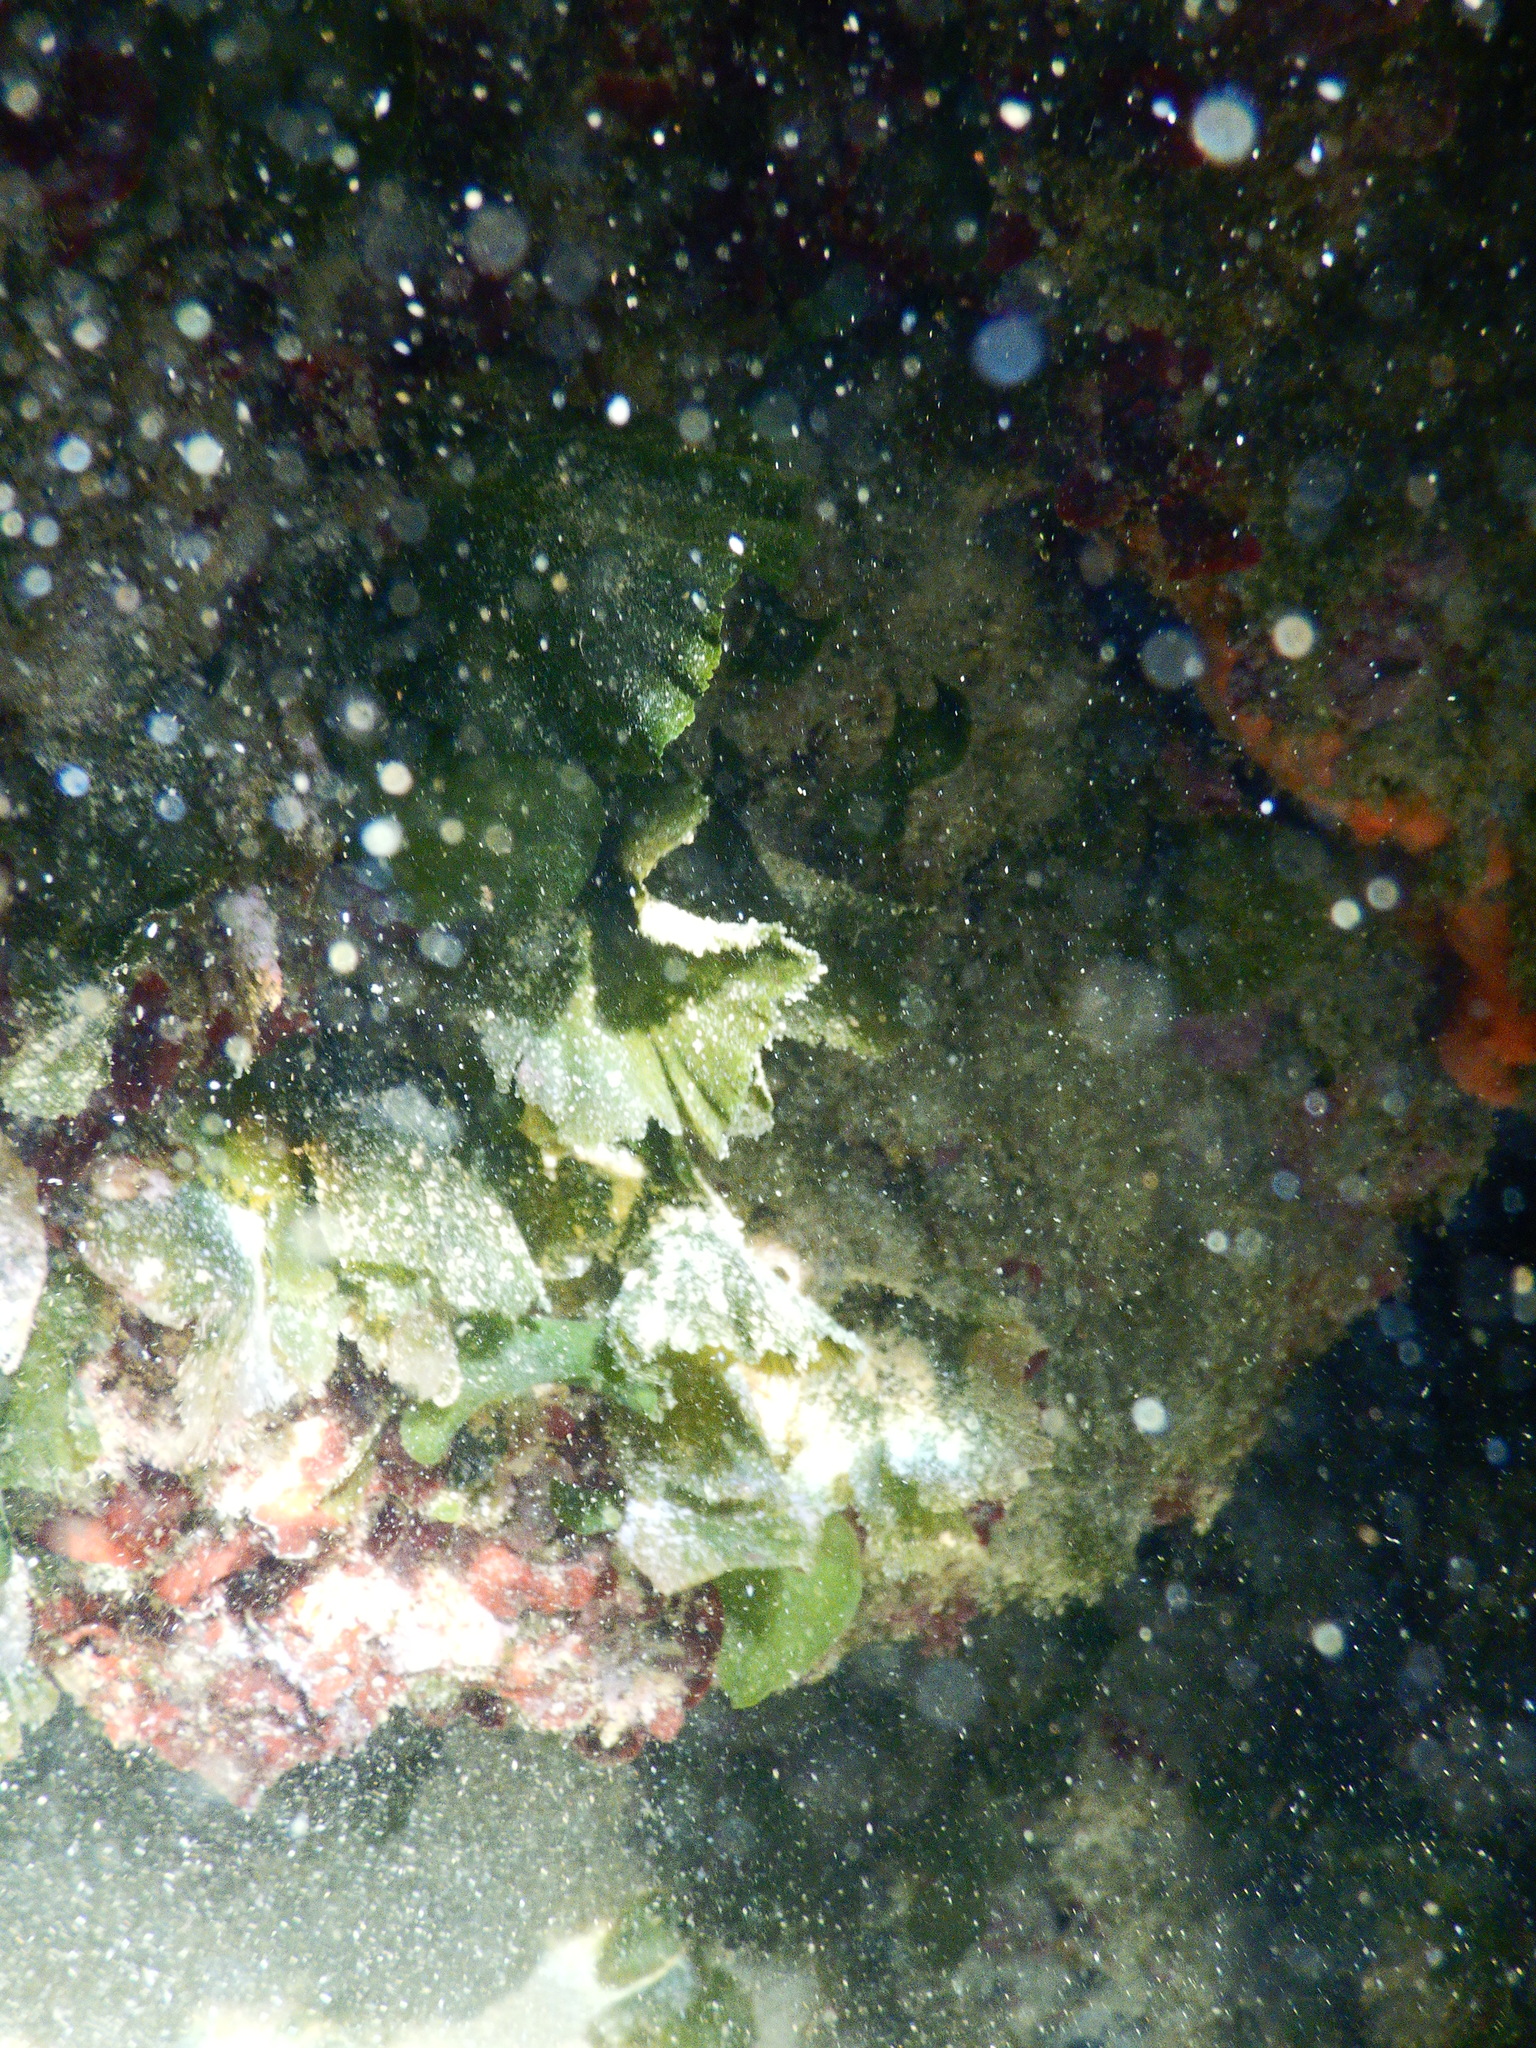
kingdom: Plantae
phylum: Chlorophyta
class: Ulvophyceae
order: Bryopsidales
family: Codiaceae
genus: Codium
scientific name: Codium Flabellia petiolata
